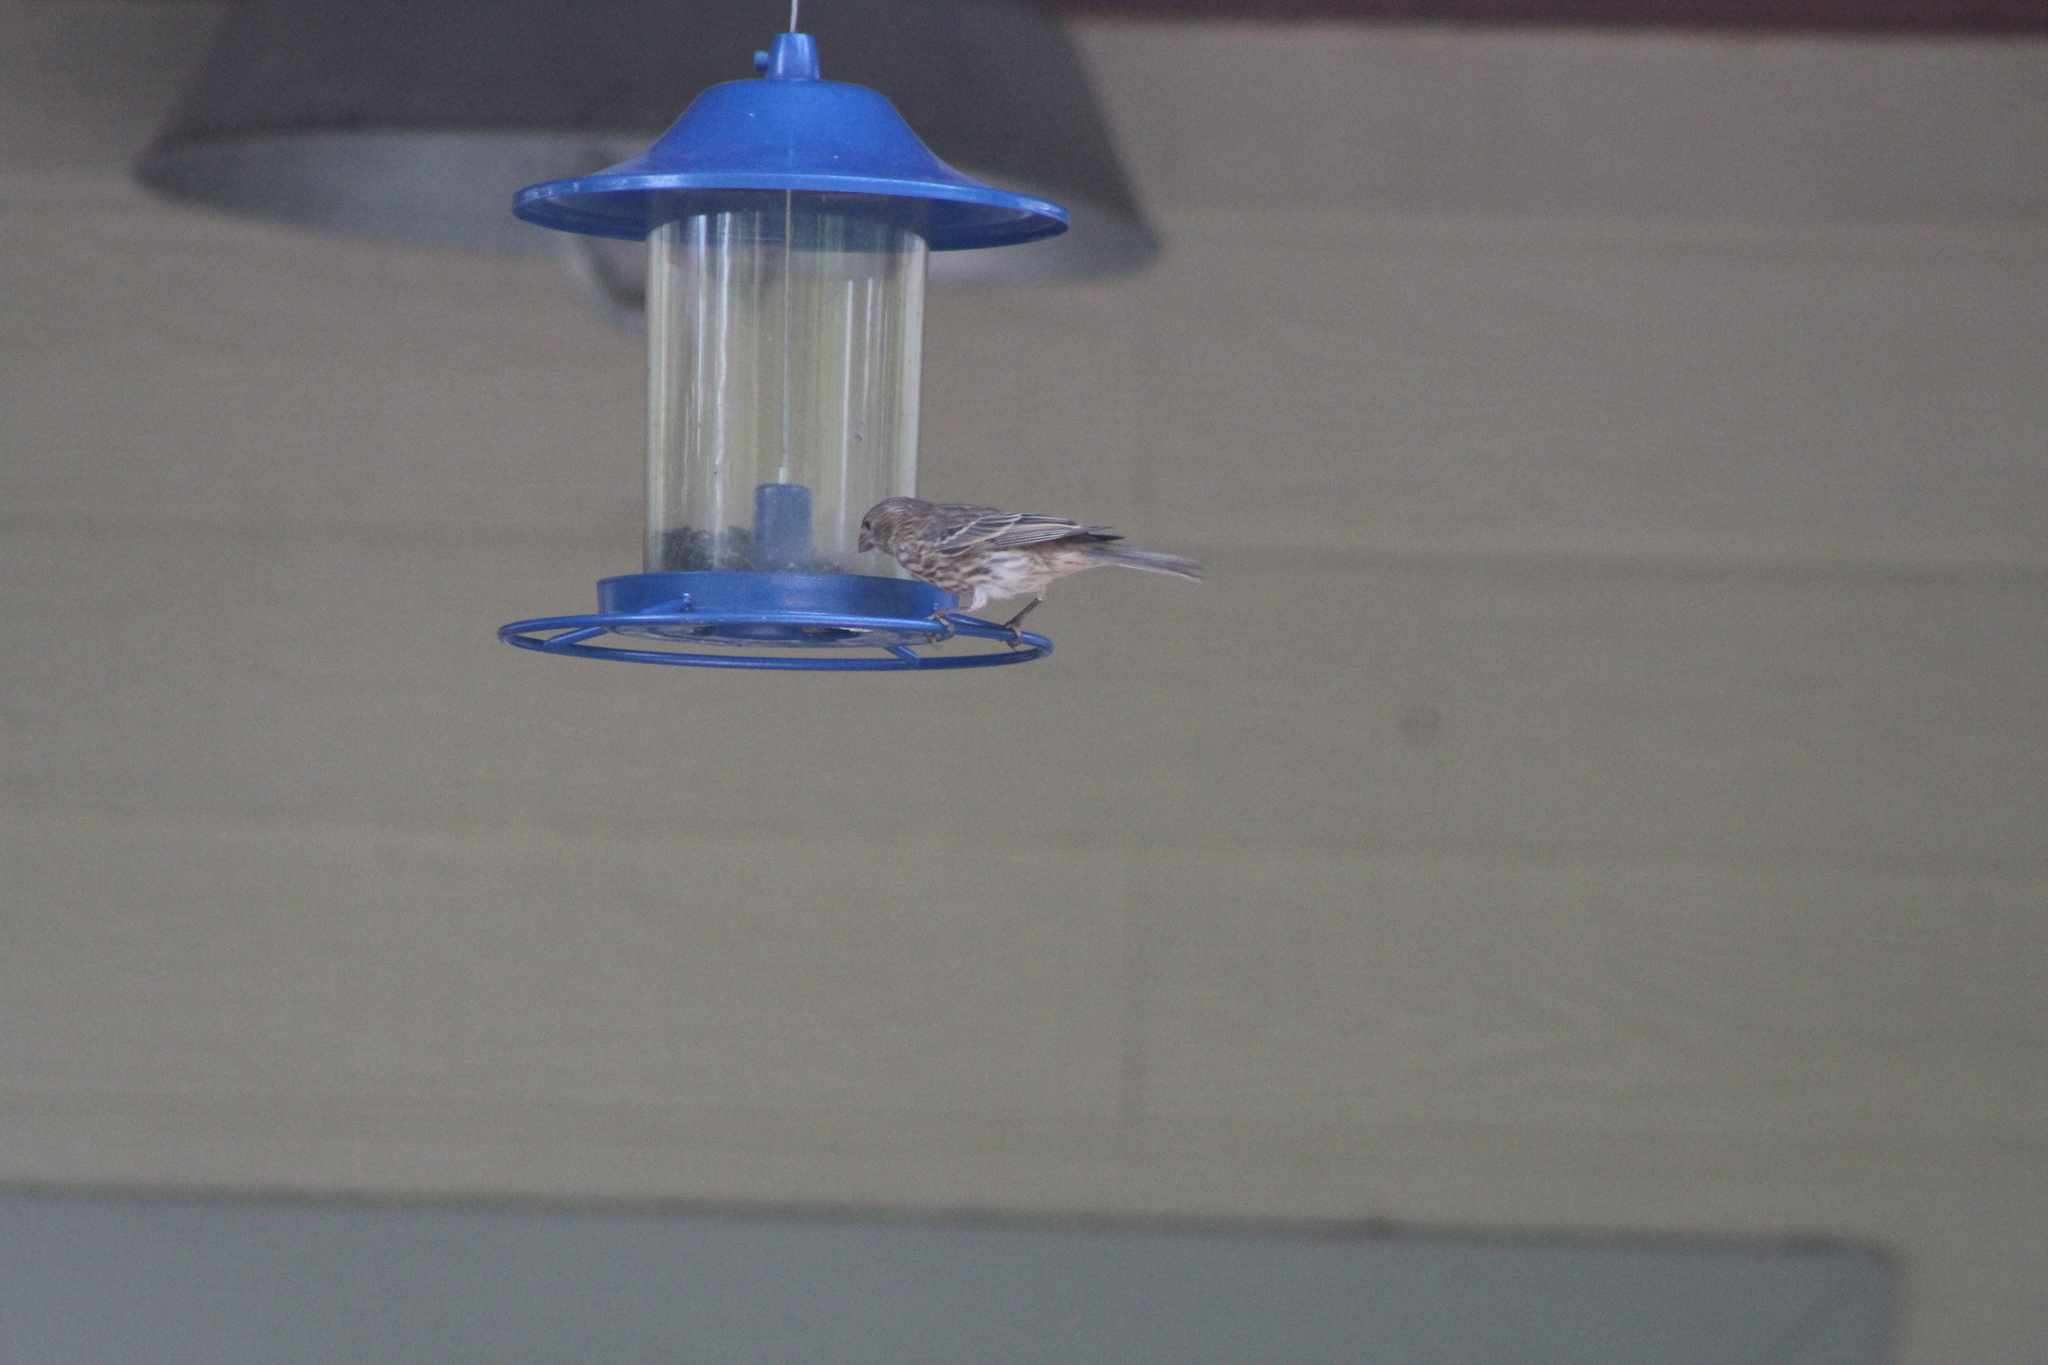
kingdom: Animalia
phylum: Chordata
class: Aves
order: Passeriformes
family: Fringillidae
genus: Haemorhous
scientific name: Haemorhous mexicanus
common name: House finch
